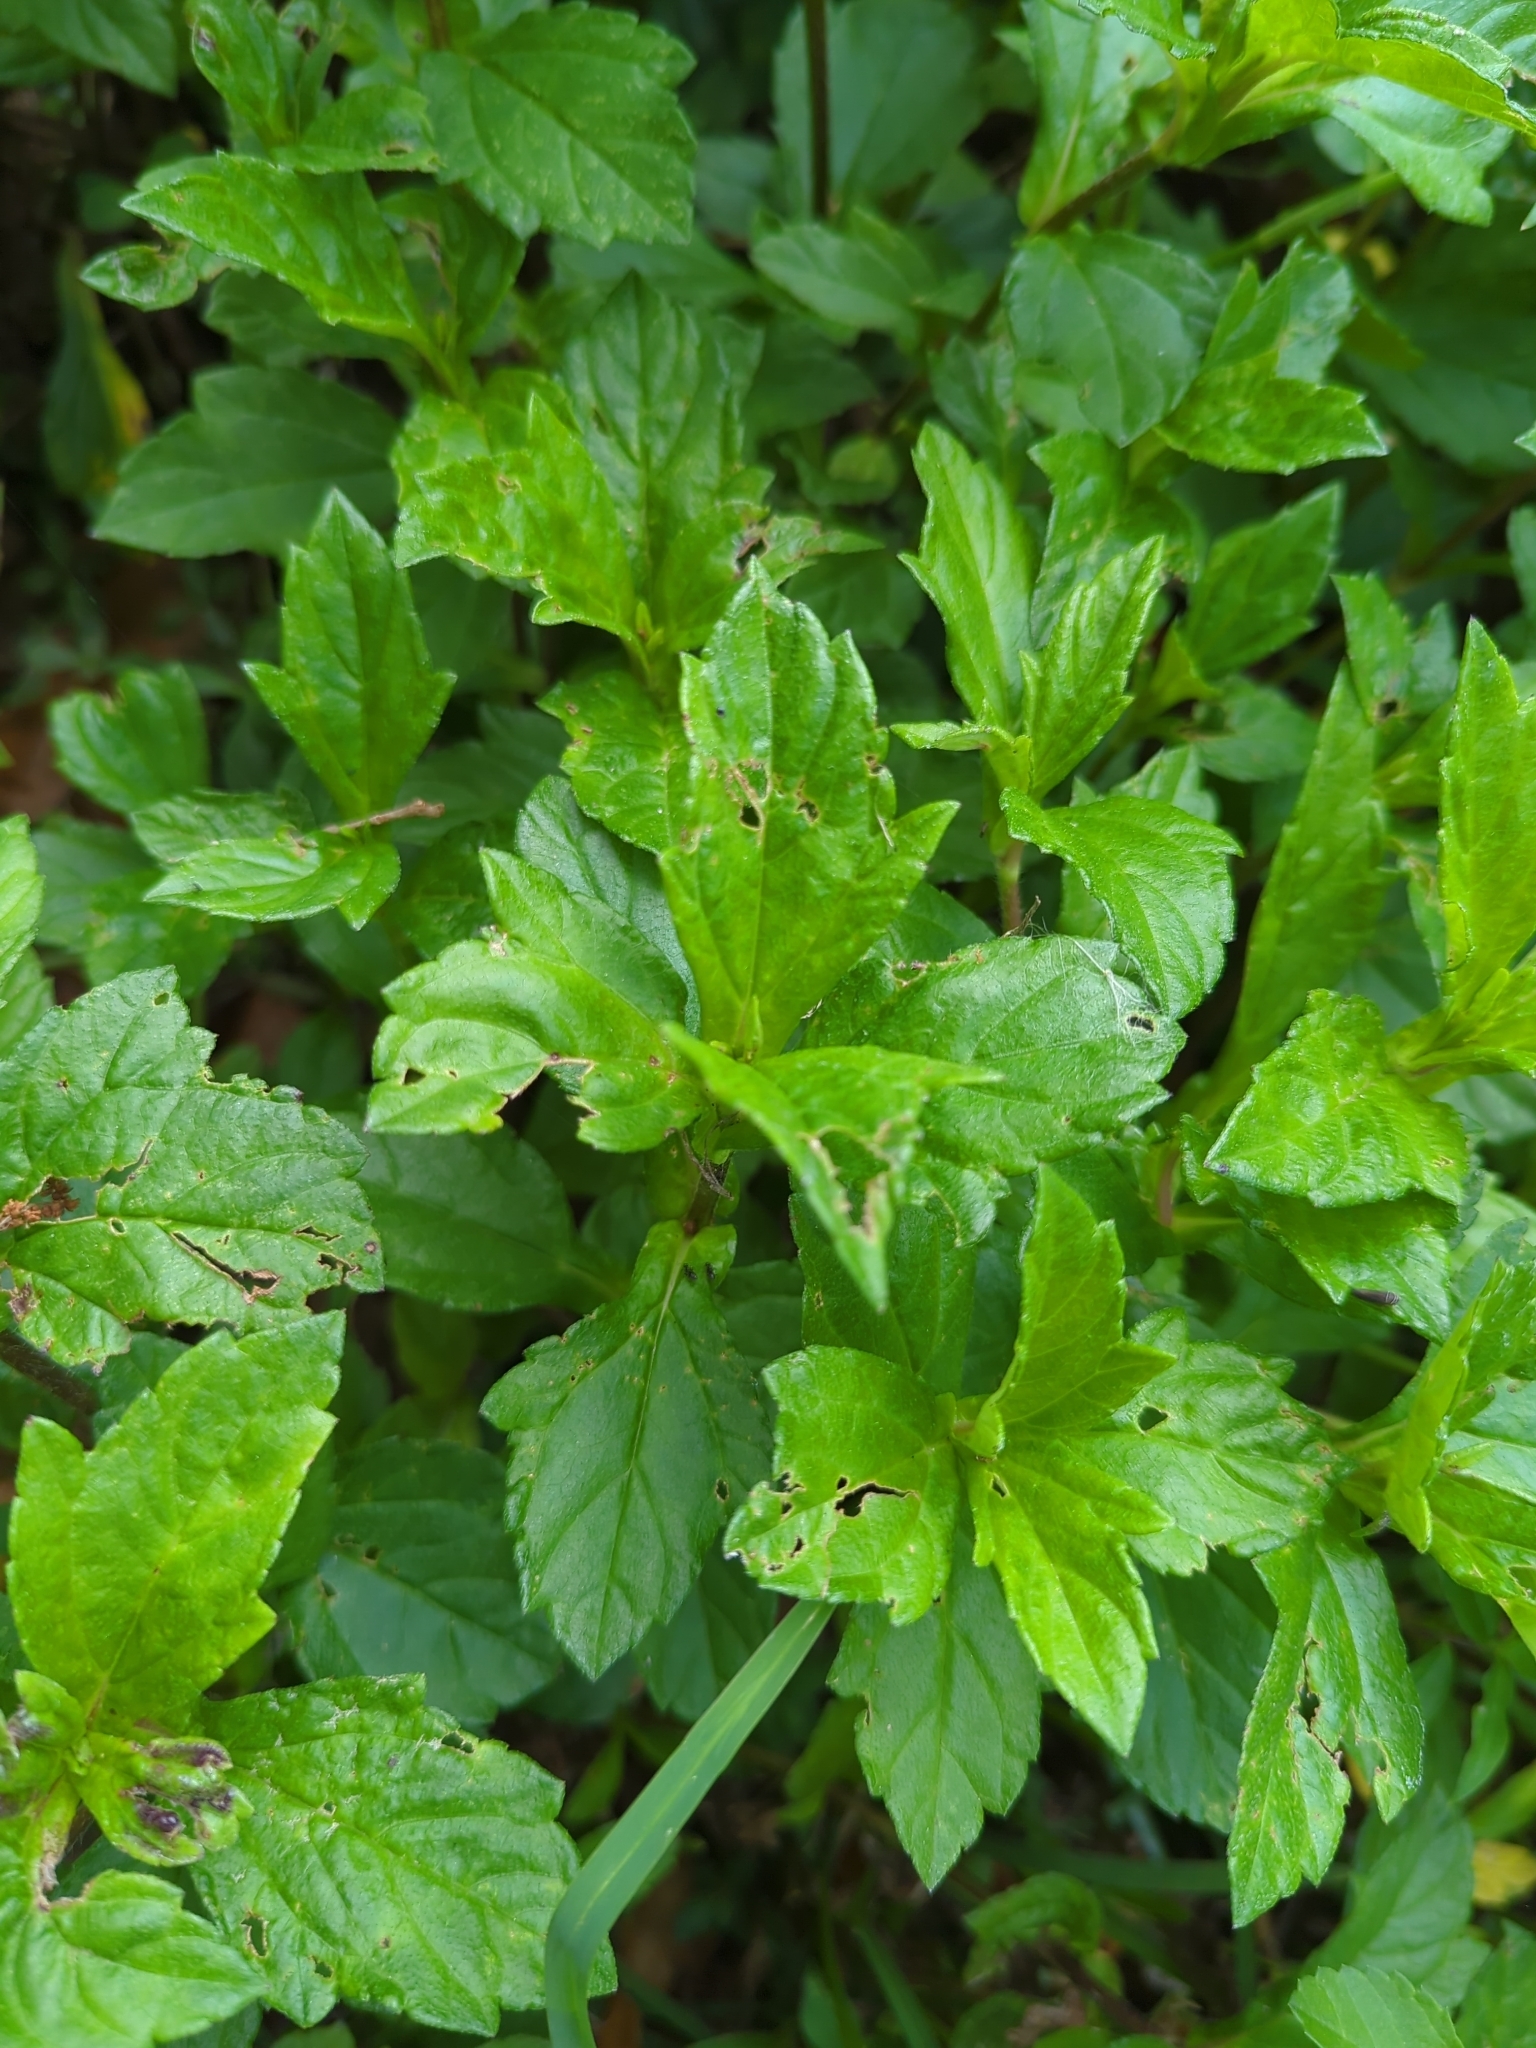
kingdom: Plantae
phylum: Tracheophyta
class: Magnoliopsida
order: Asterales
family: Asteraceae
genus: Sphagneticola
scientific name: Sphagneticola trilobata
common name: Bay biscayne creeping-oxeye
